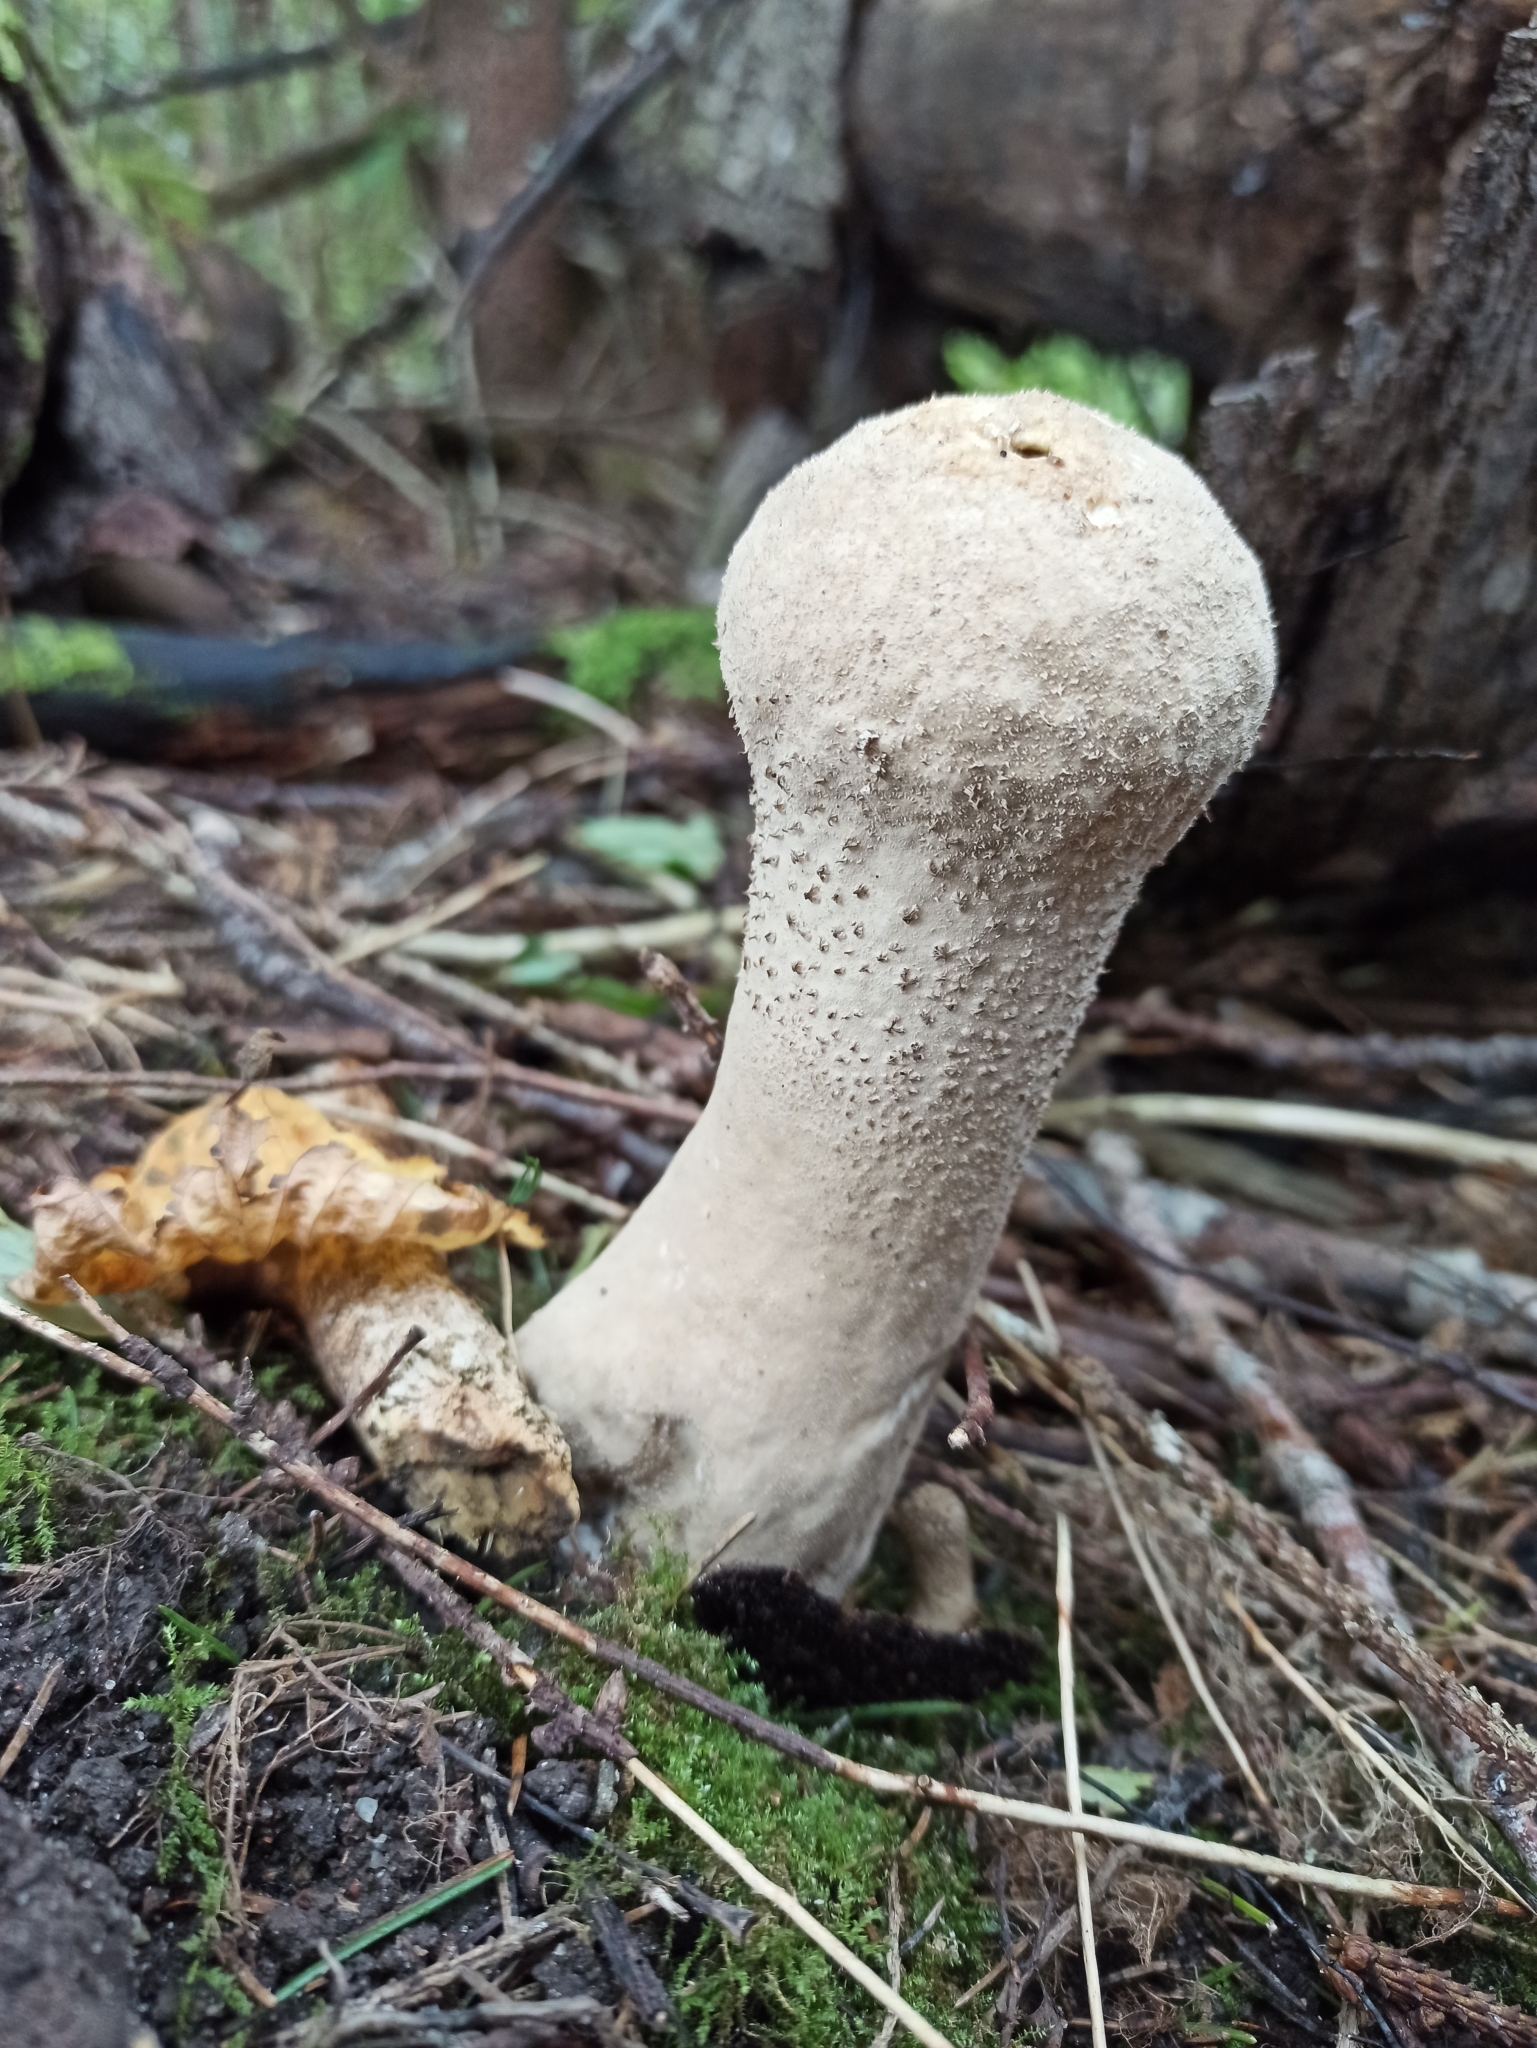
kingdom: Fungi
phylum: Basidiomycota
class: Agaricomycetes
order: Agaricales
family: Lycoperdaceae
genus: Lycoperdon
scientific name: Lycoperdon excipuliforme
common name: Pestle puffball
